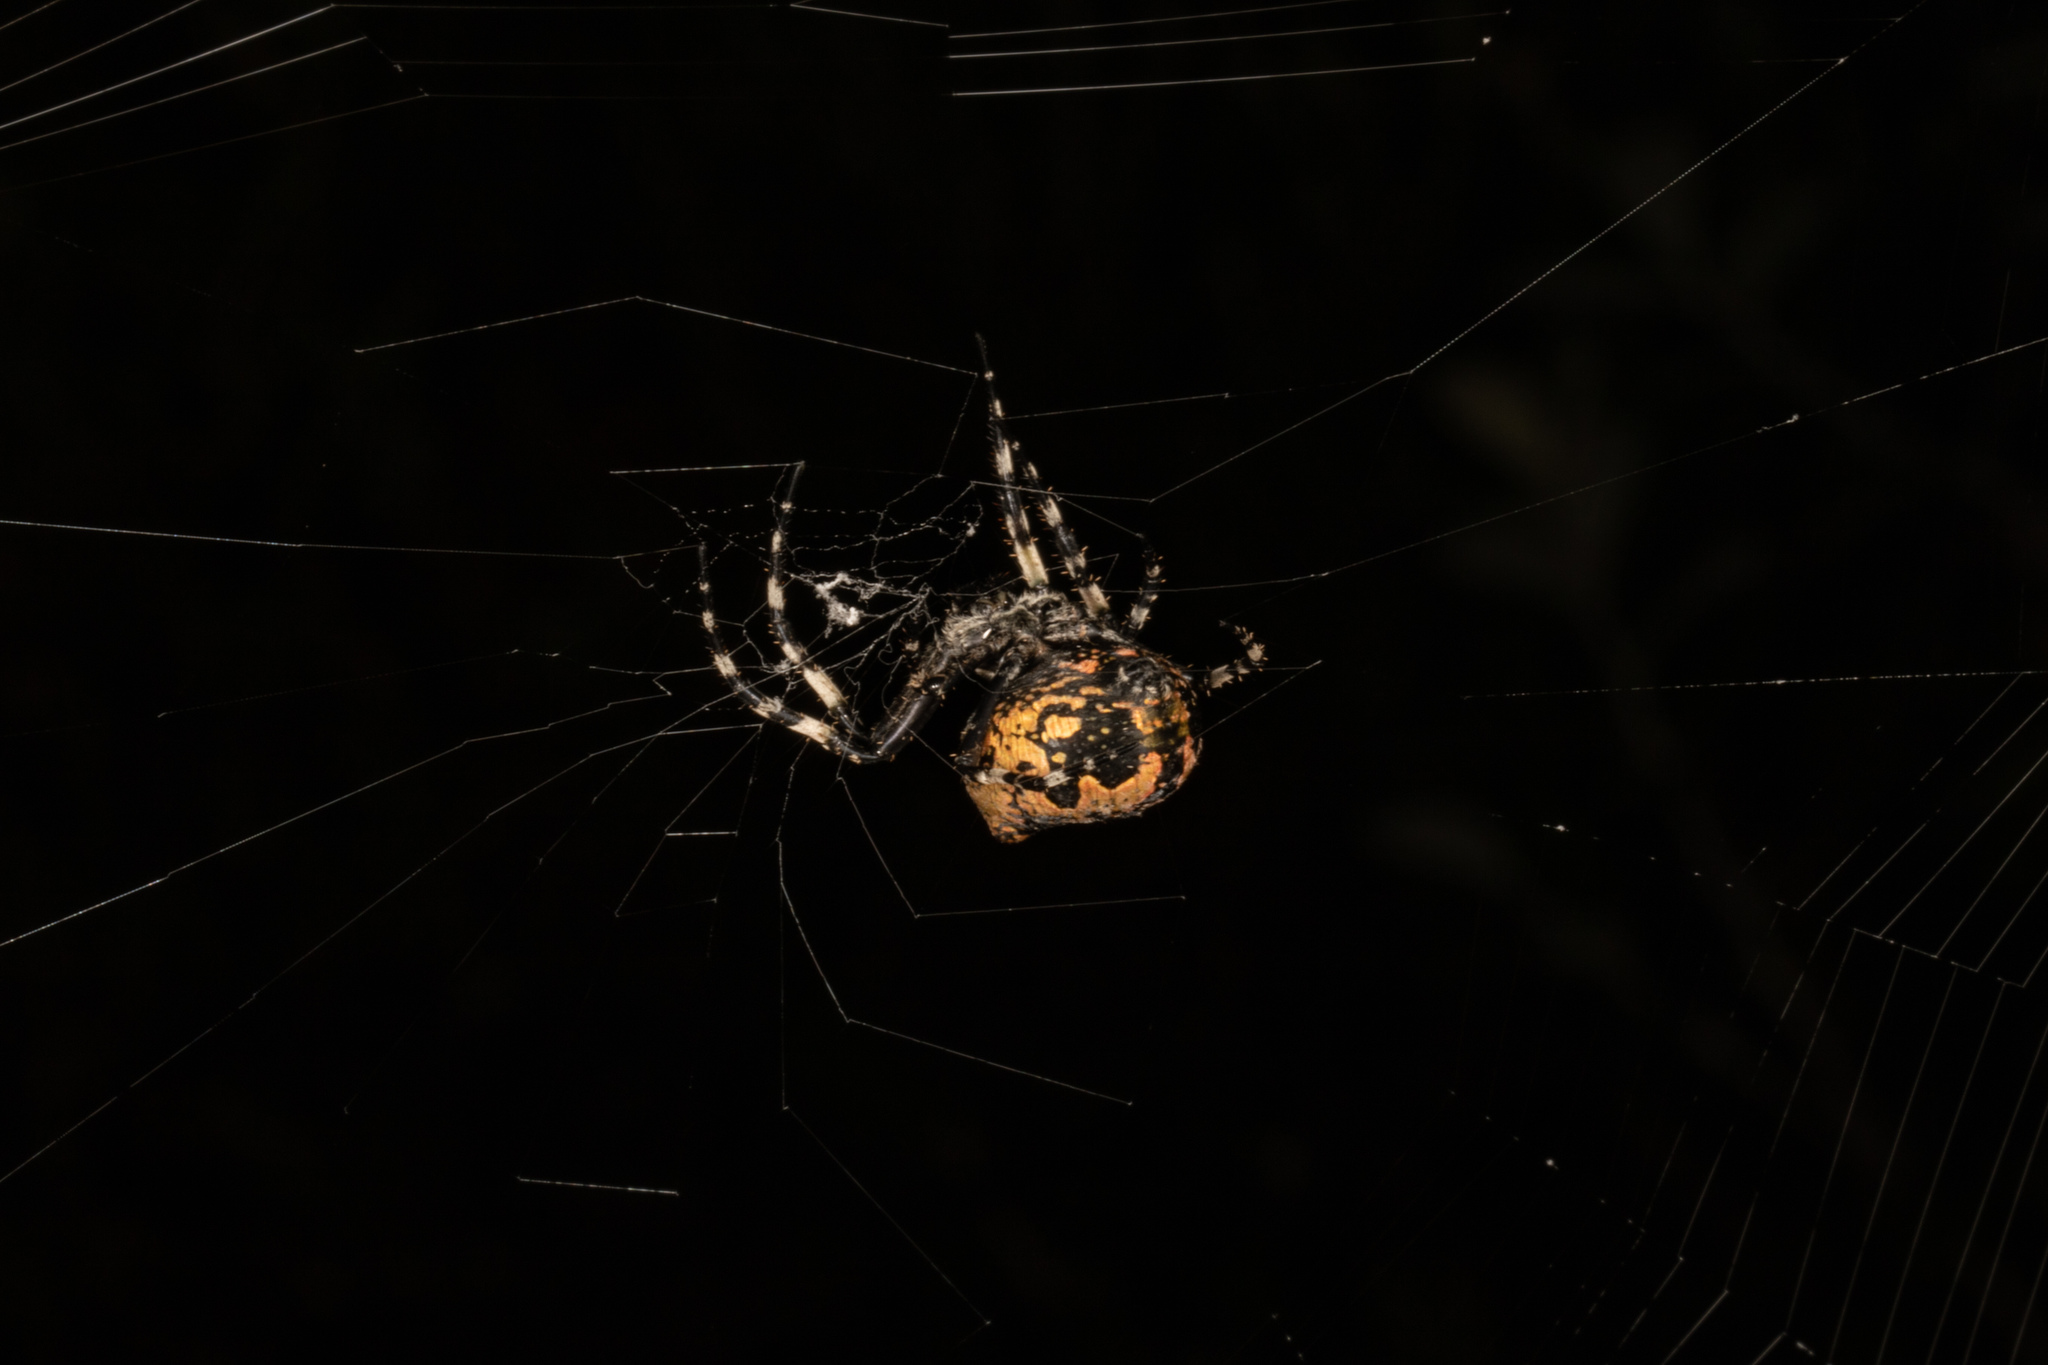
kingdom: Animalia
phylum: Arthropoda
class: Arachnida
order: Araneae
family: Araneidae
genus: Courtaraneus
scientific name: Courtaraneus orientalis
